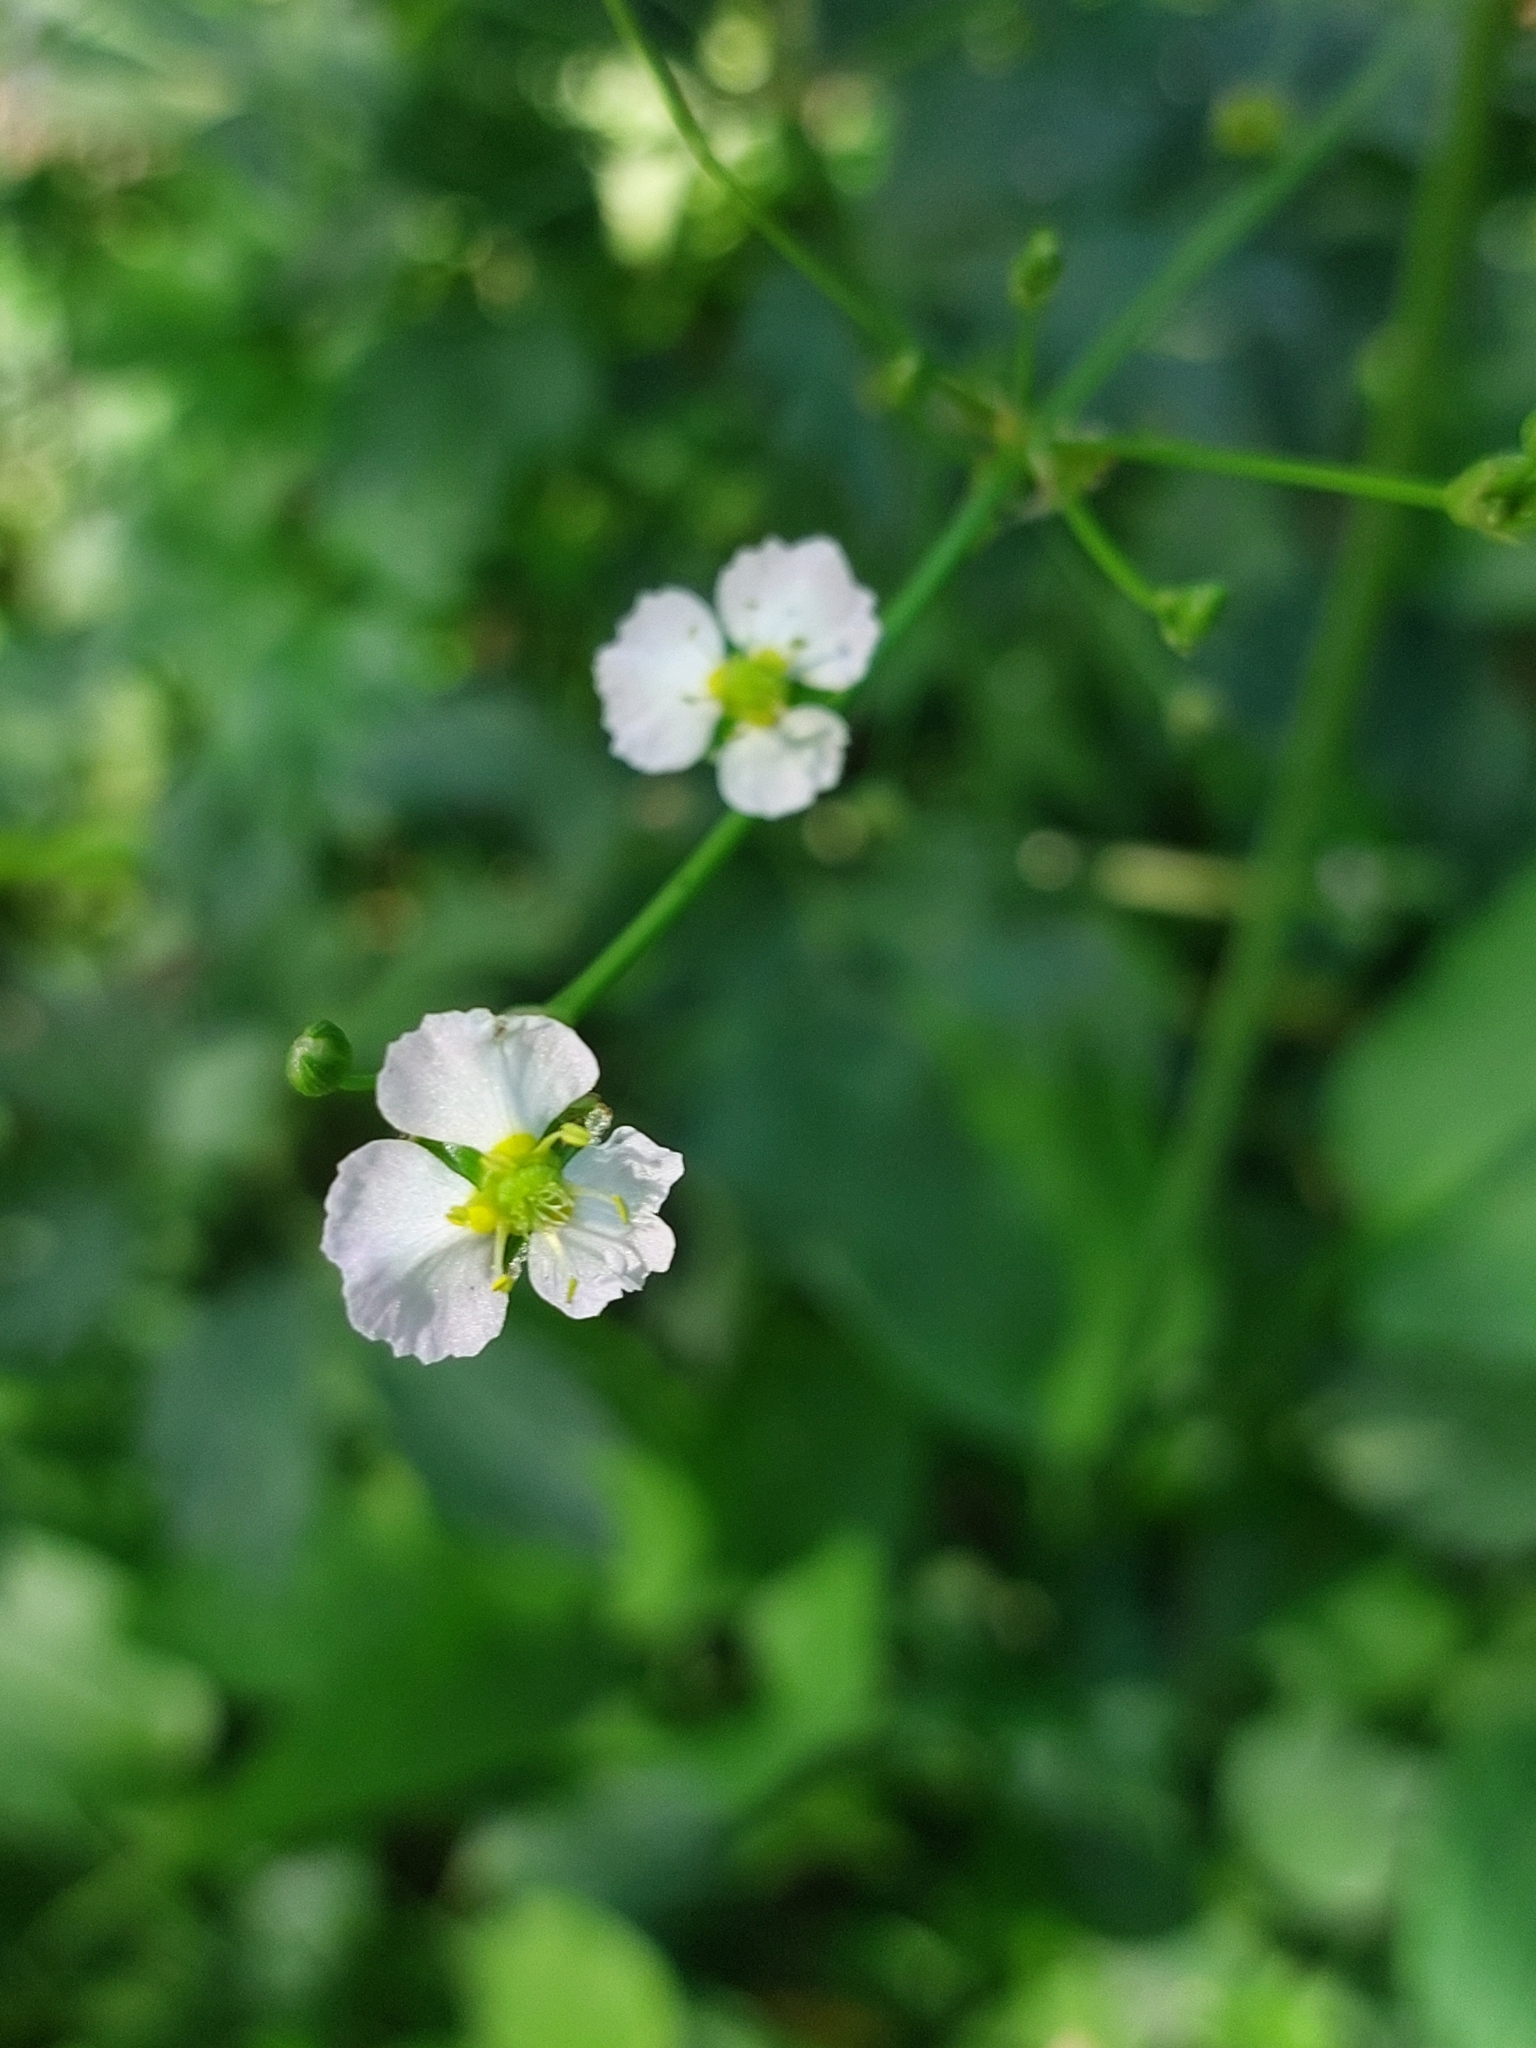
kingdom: Plantae
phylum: Tracheophyta
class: Liliopsida
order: Alismatales
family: Alismataceae
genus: Alisma
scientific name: Alisma plantago-aquatica
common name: Water-plantain
